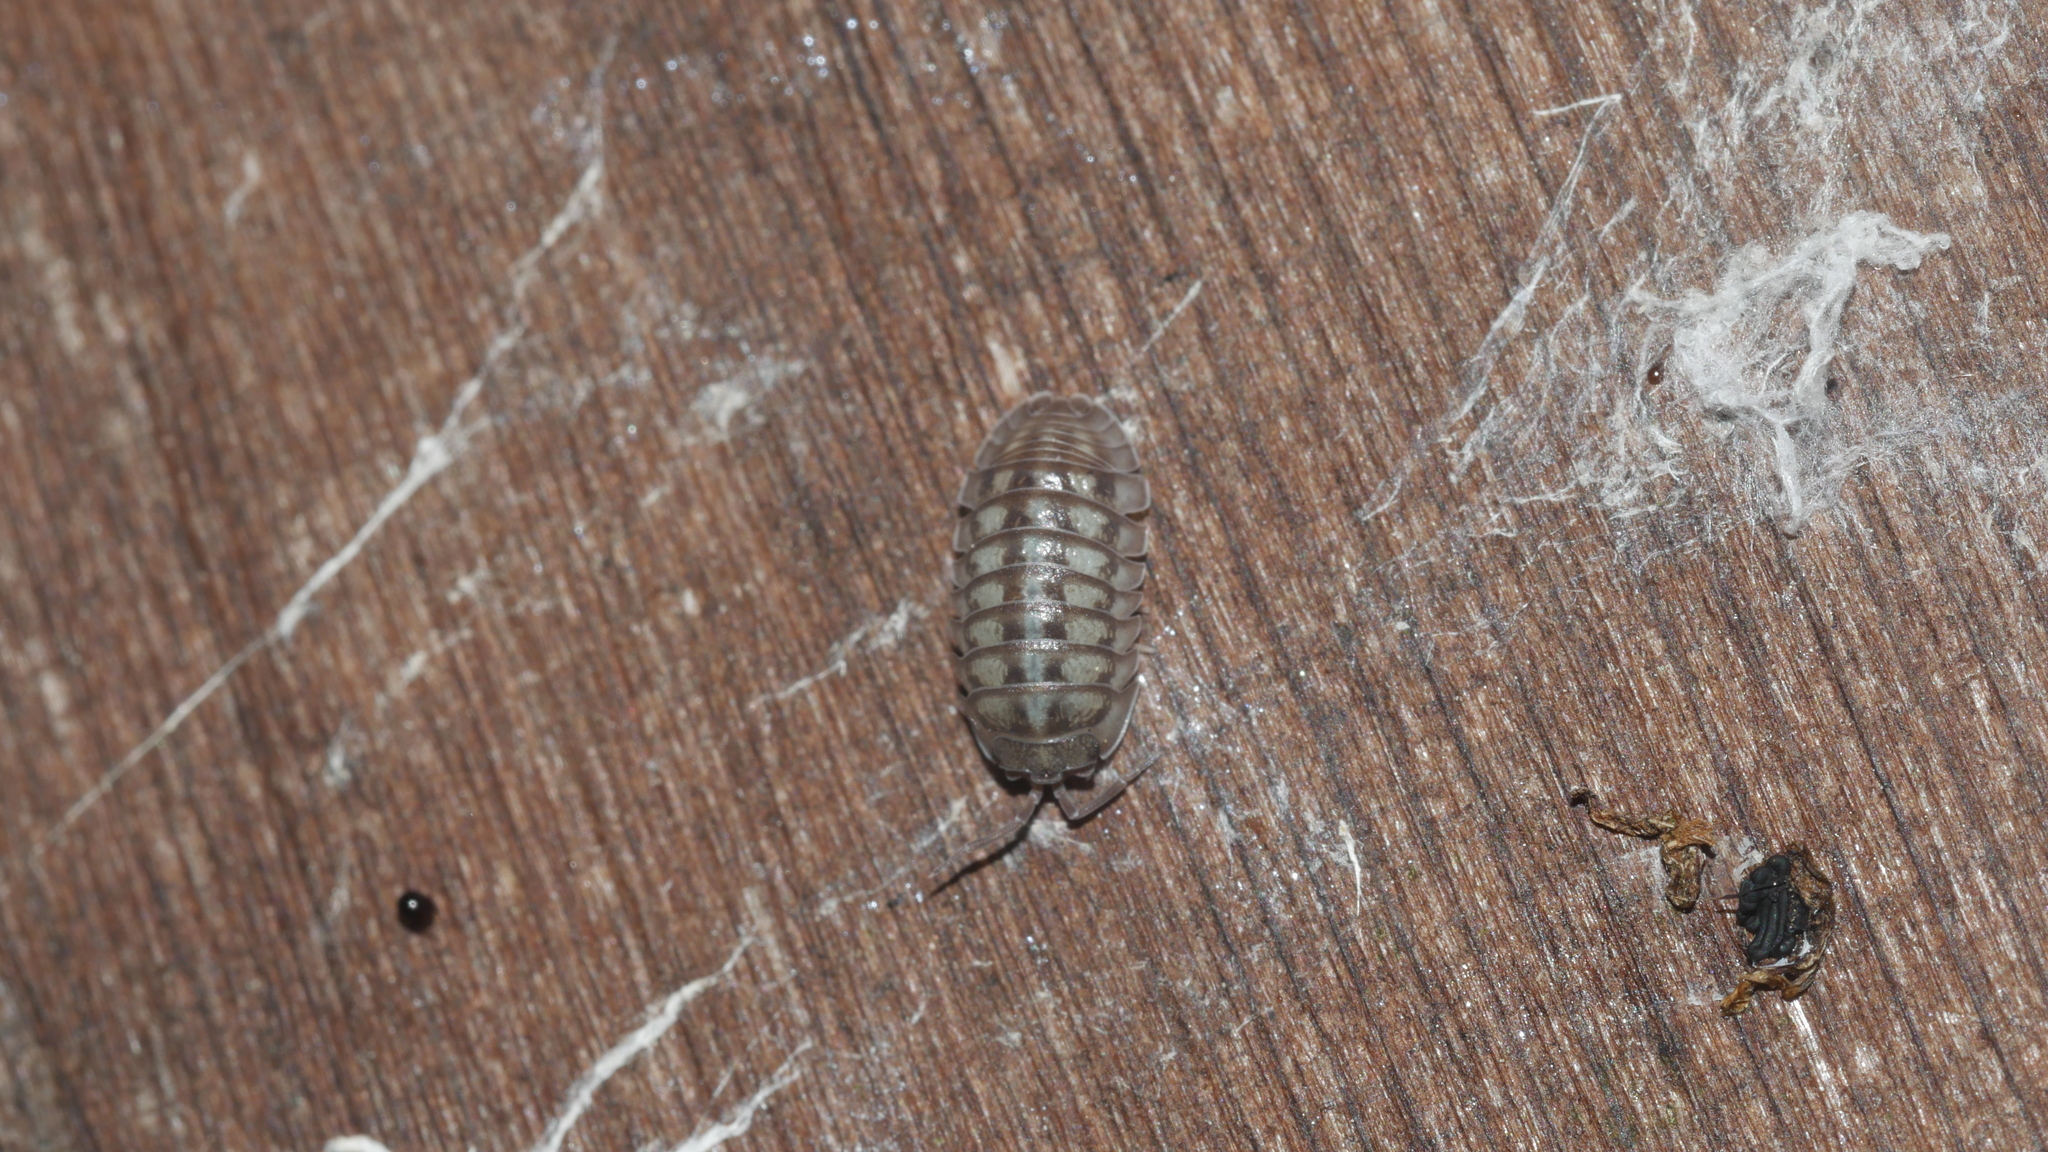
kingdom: Animalia
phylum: Arthropoda
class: Malacostraca
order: Isopoda
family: Armadillidiidae
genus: Armadillidium
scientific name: Armadillidium nasatum
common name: Isopod
